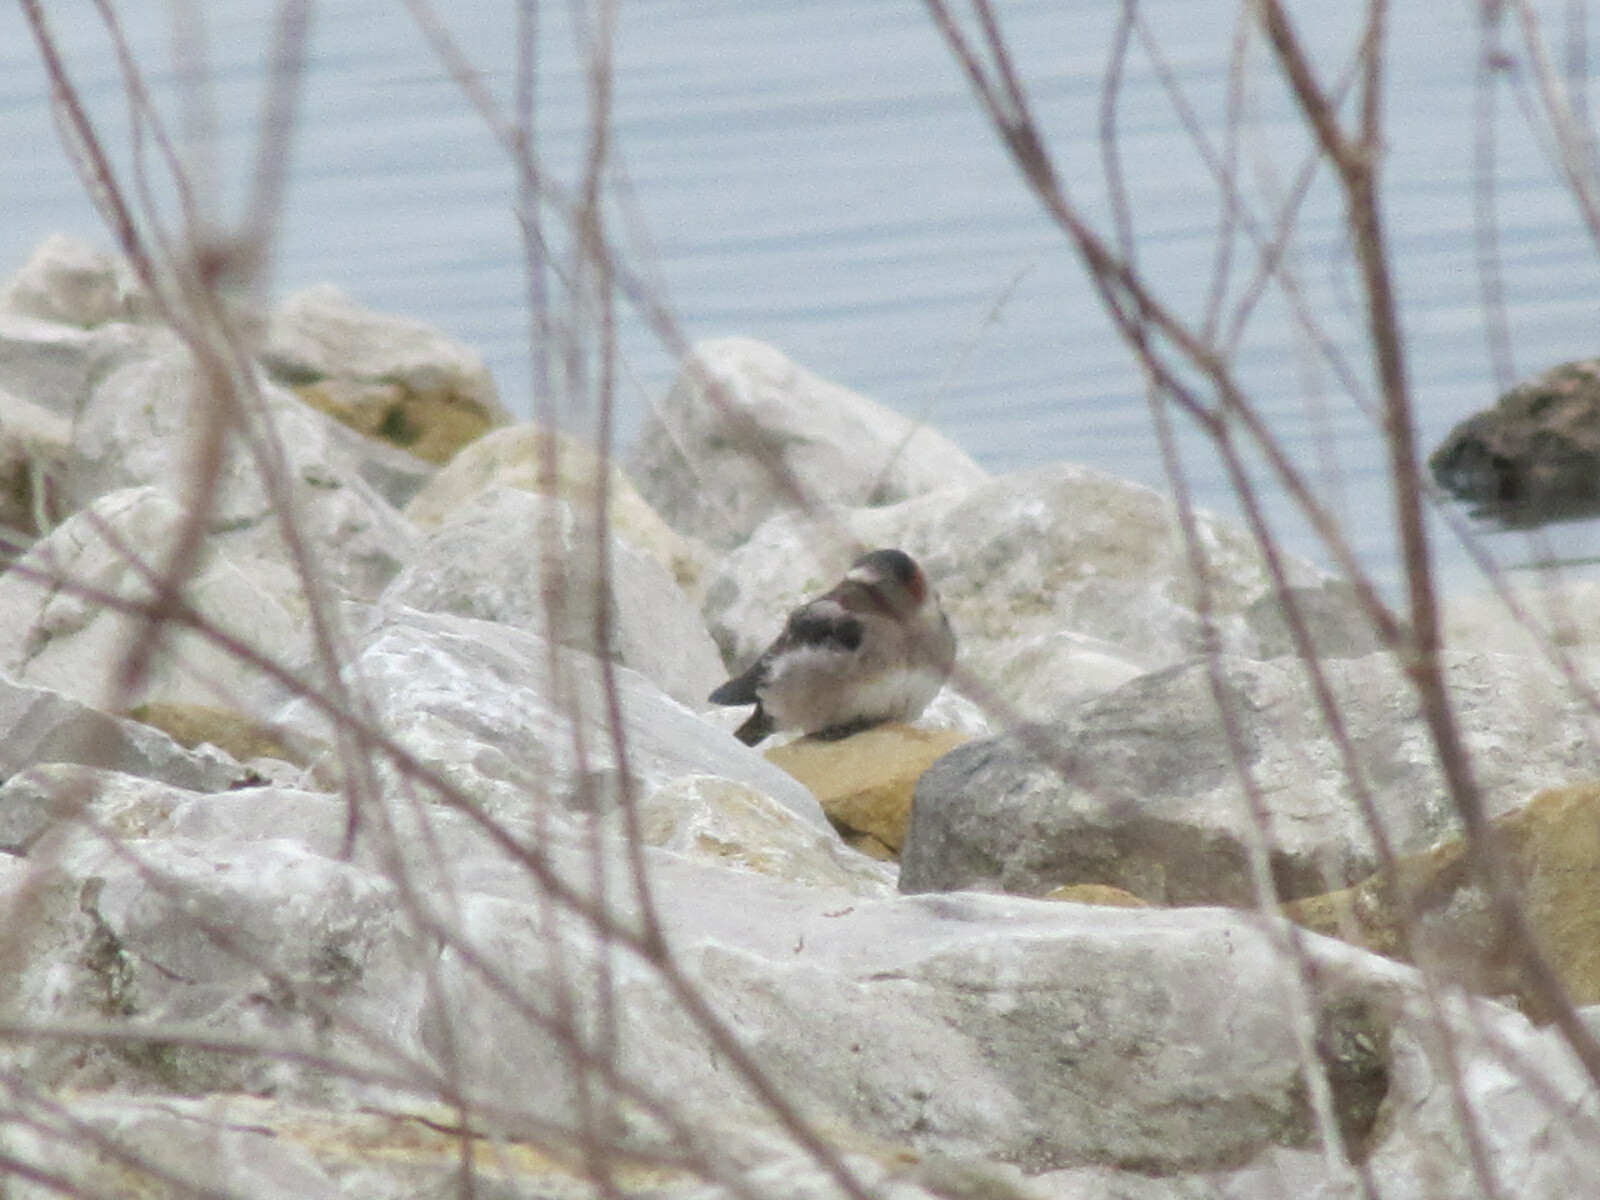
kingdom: Animalia
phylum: Chordata
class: Aves
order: Passeriformes
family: Hirundinidae
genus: Petrochelidon
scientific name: Petrochelidon pyrrhonota
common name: American cliff swallow
